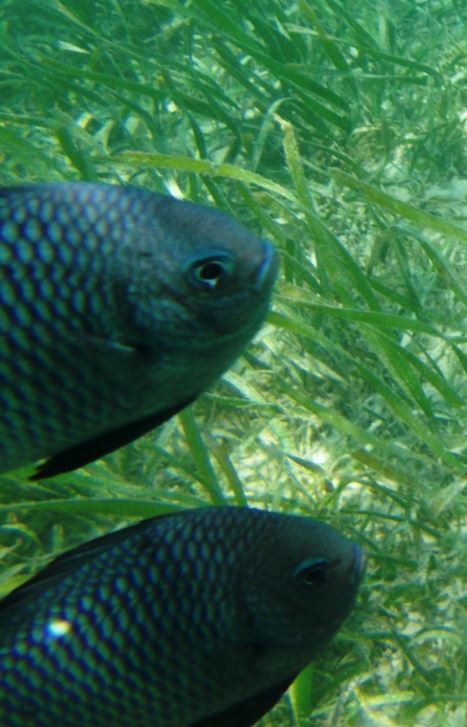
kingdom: Animalia
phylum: Chordata
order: Perciformes
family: Pomacentridae
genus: Dascyllus
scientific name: Dascyllus trimaculatus
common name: Threespot dascyllus
